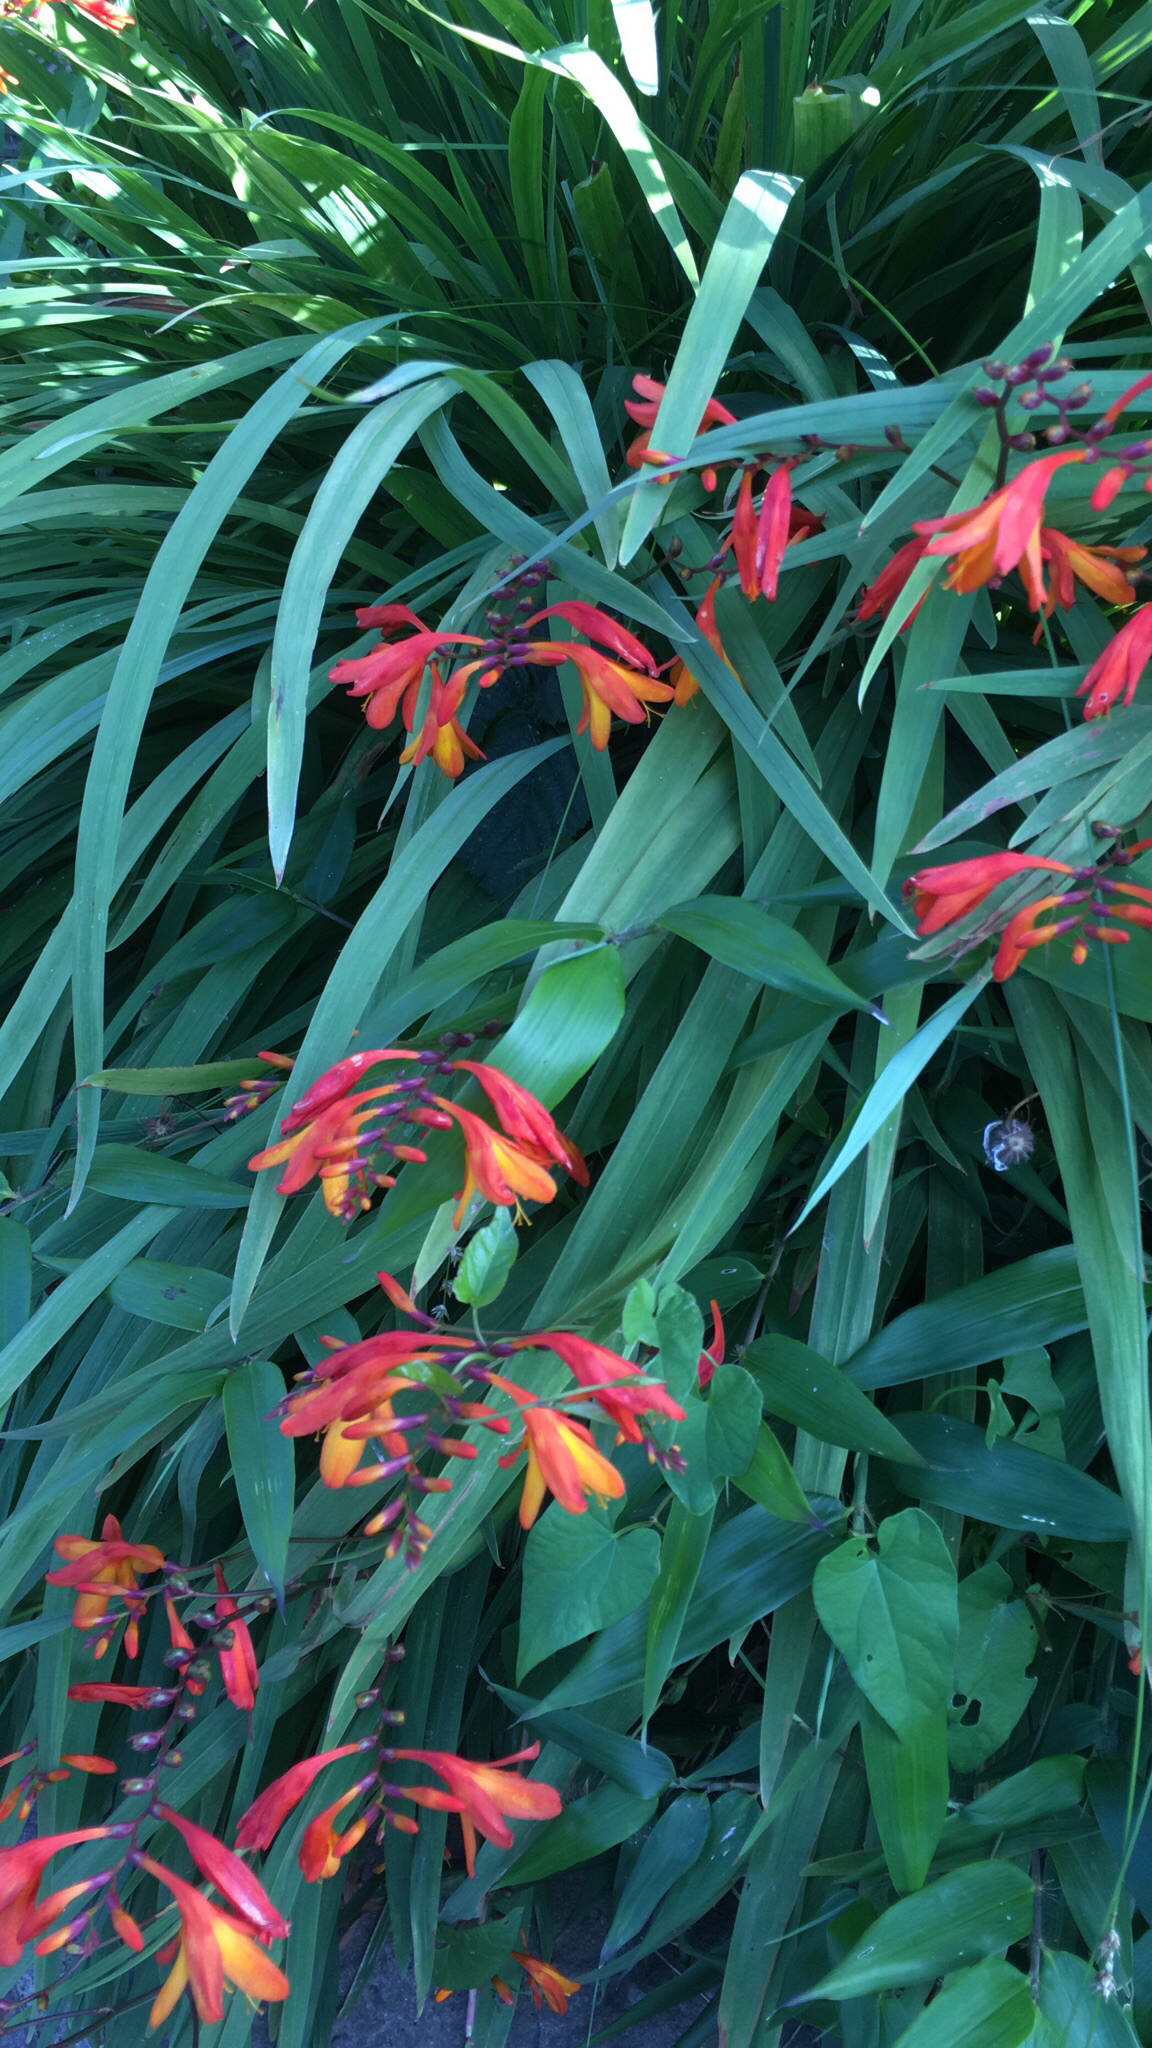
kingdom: Plantae
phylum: Tracheophyta
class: Liliopsida
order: Asparagales
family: Iridaceae
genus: Crocosmia
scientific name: Crocosmia crocosmiiflora
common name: Montbretia
